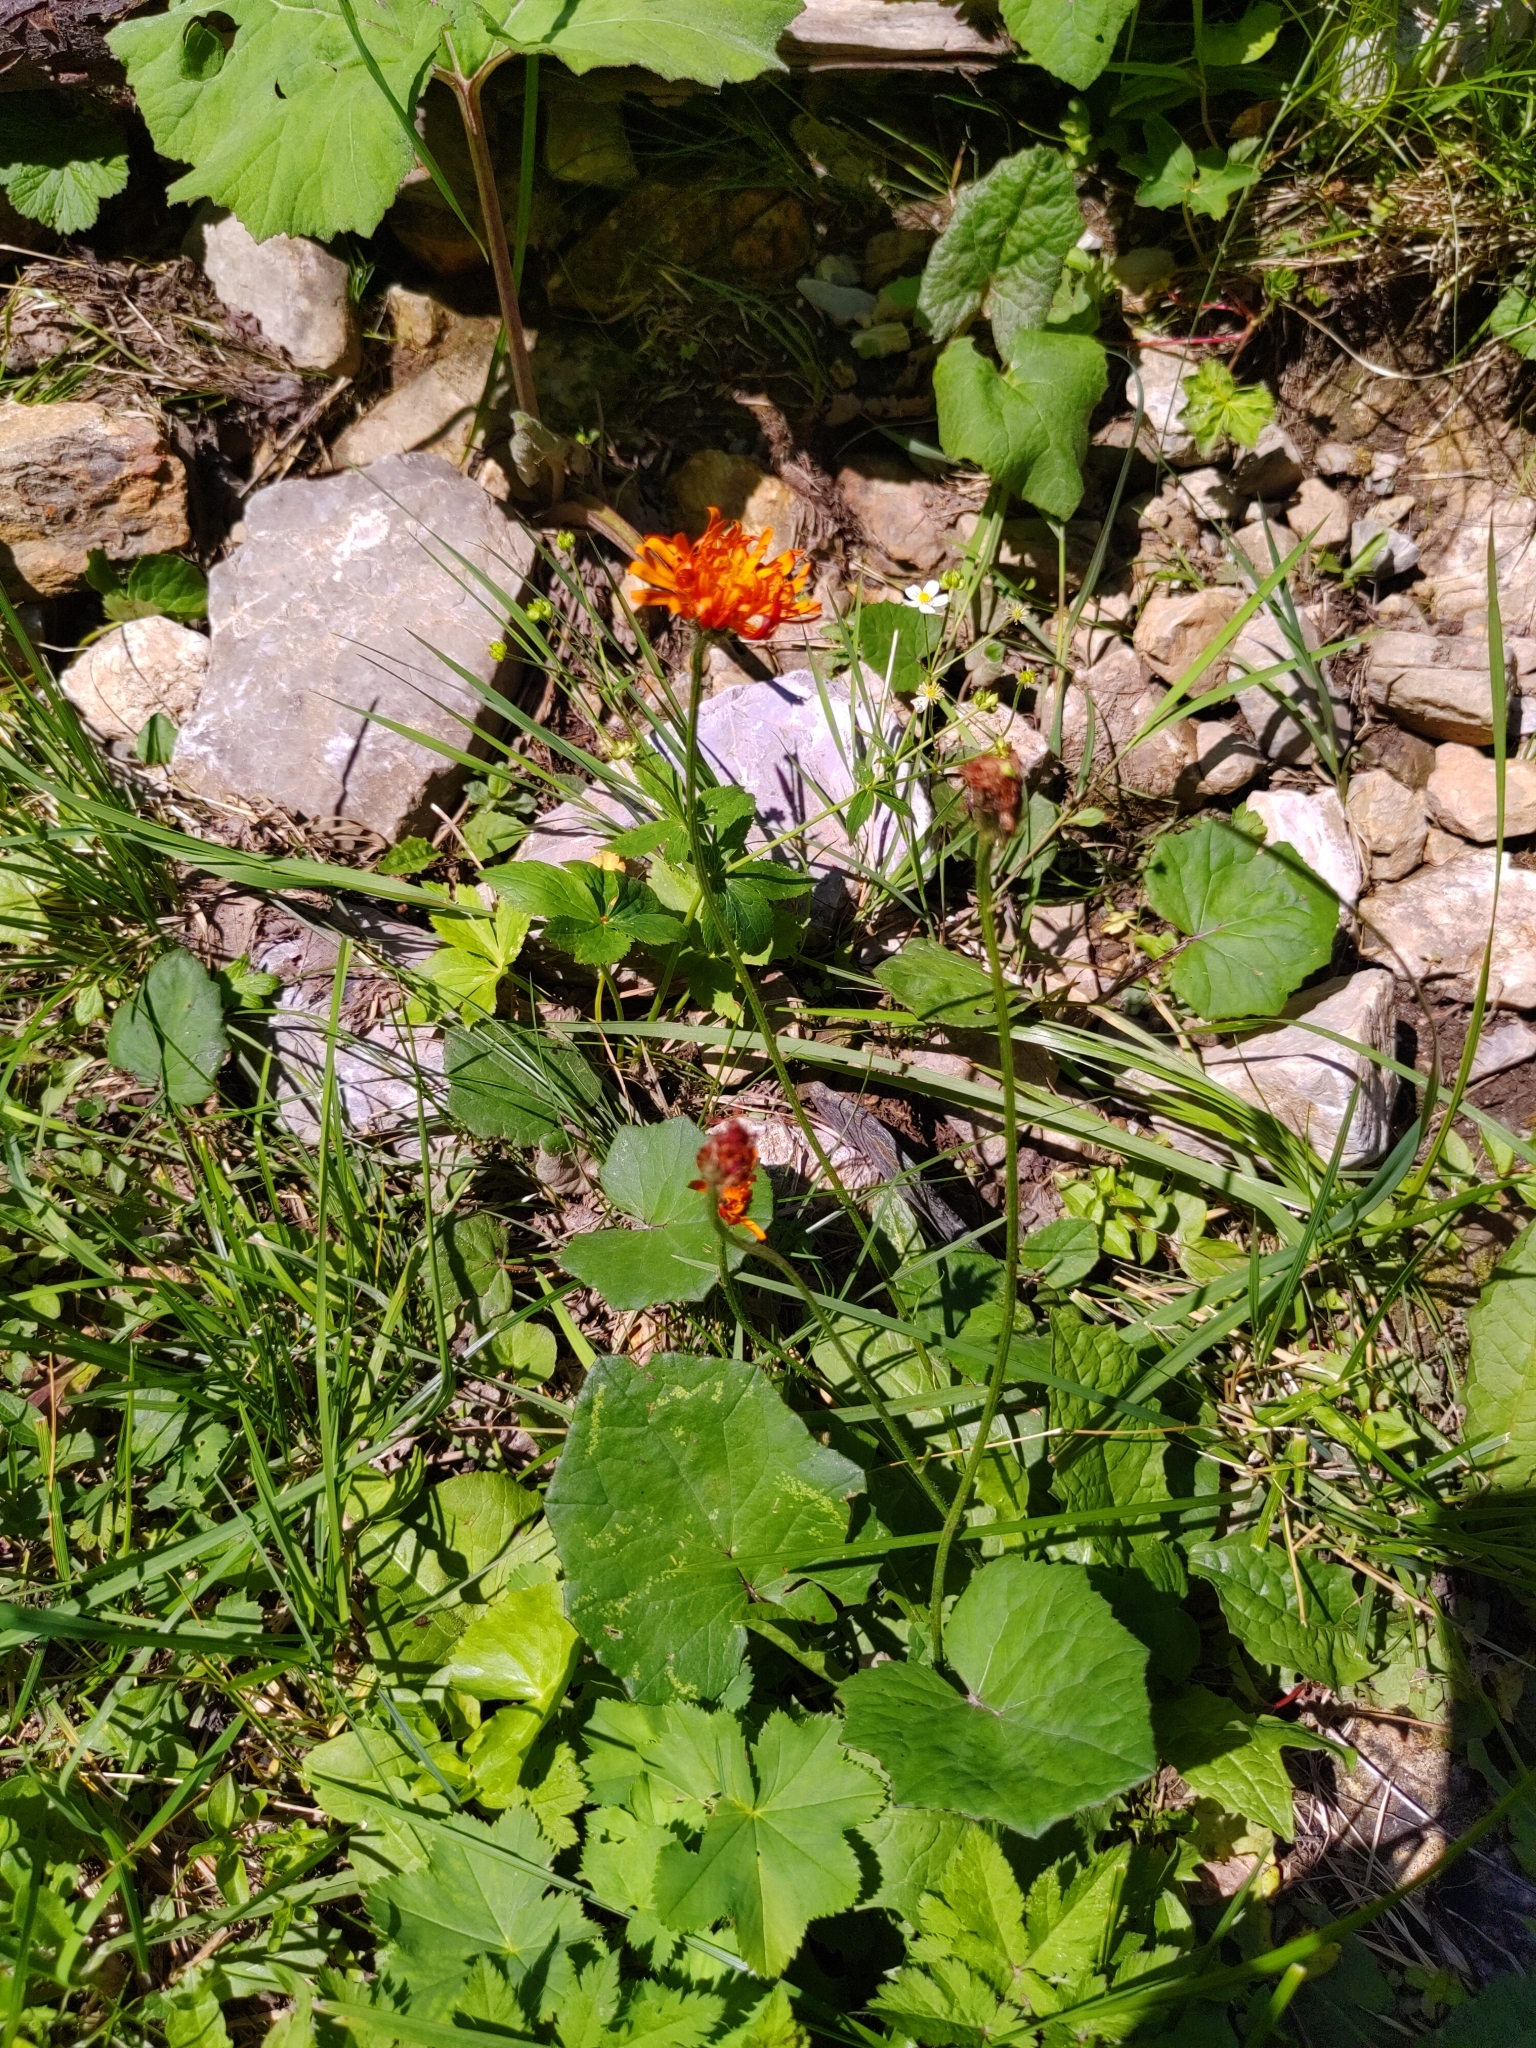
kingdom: Plantae
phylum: Tracheophyta
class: Magnoliopsida
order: Asterales
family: Asteraceae
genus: Crepis
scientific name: Crepis aurea
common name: Golden hawk's-beard
